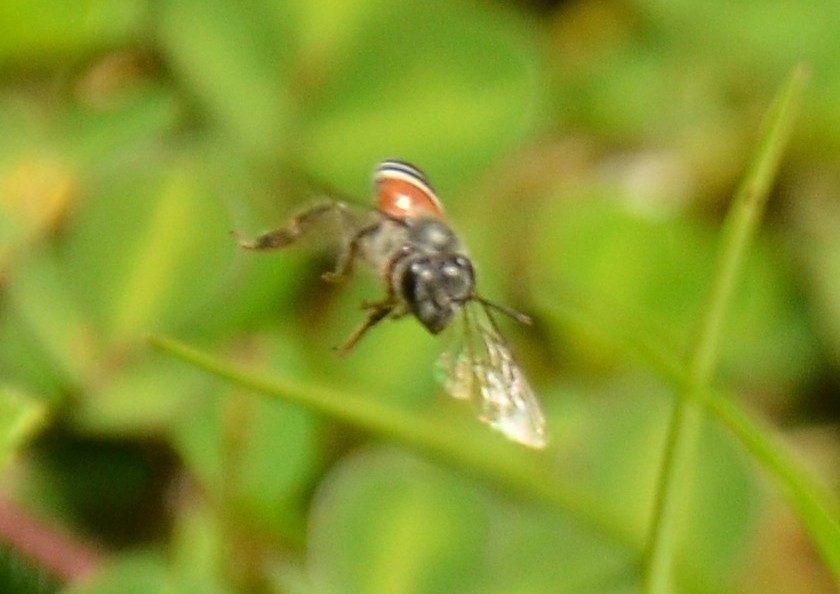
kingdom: Animalia
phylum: Arthropoda
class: Insecta
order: Hymenoptera
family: Apidae
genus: Apis
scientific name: Apis florea
